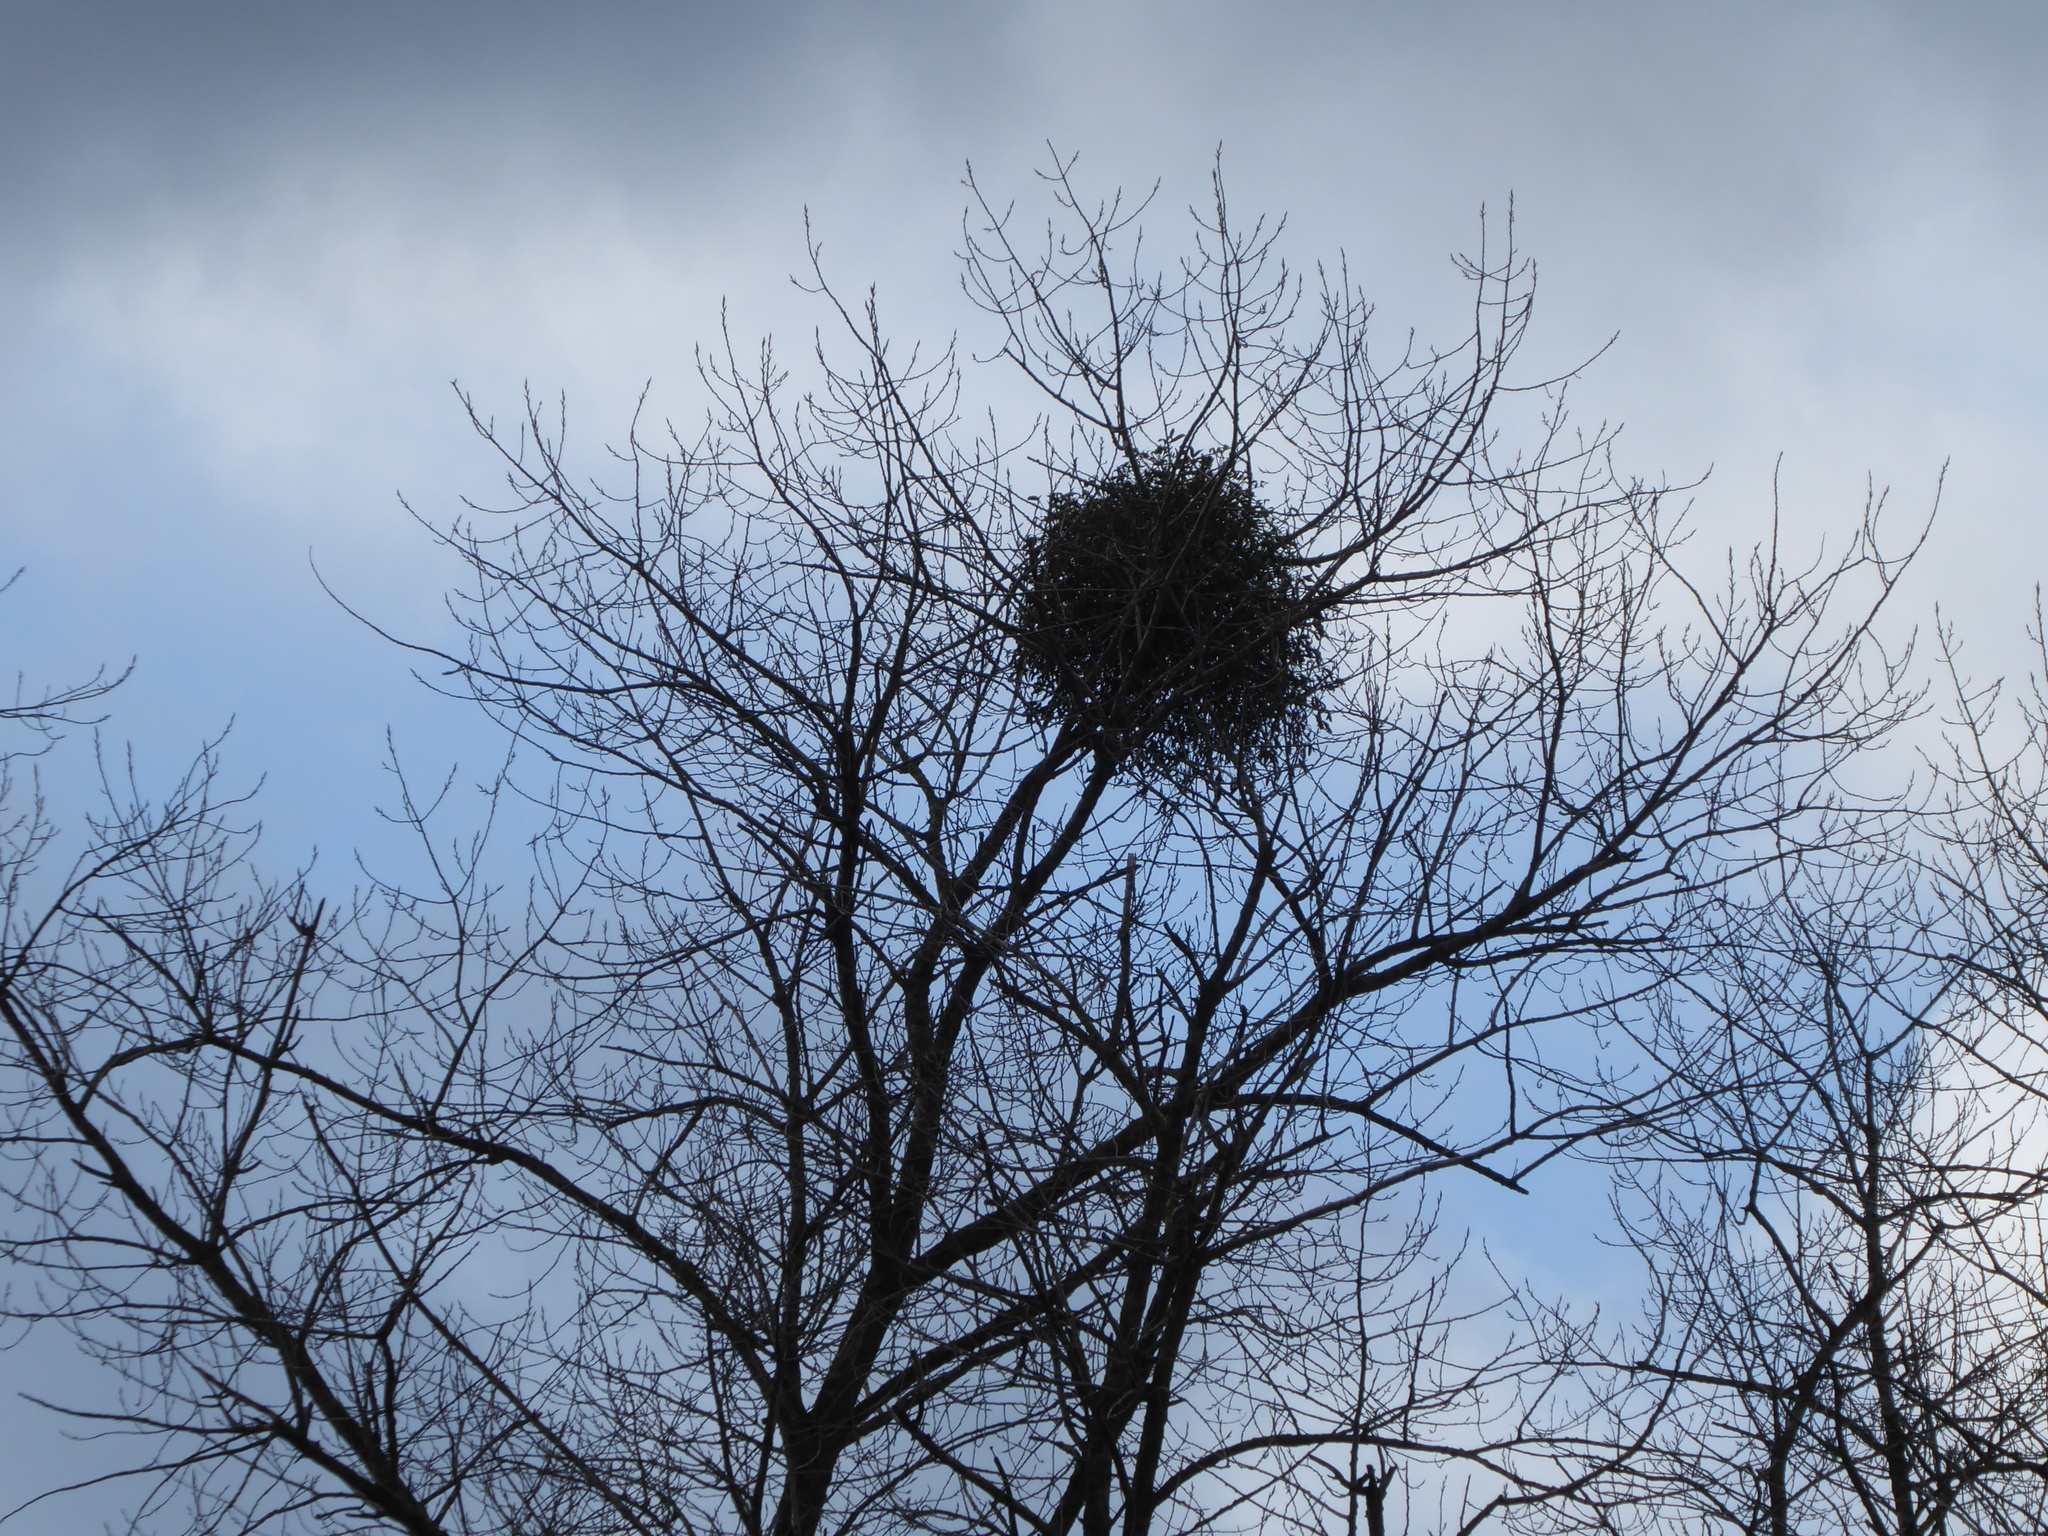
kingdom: Plantae
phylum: Tracheophyta
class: Magnoliopsida
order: Santalales
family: Viscaceae
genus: Viscum
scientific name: Viscum album
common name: Mistletoe
